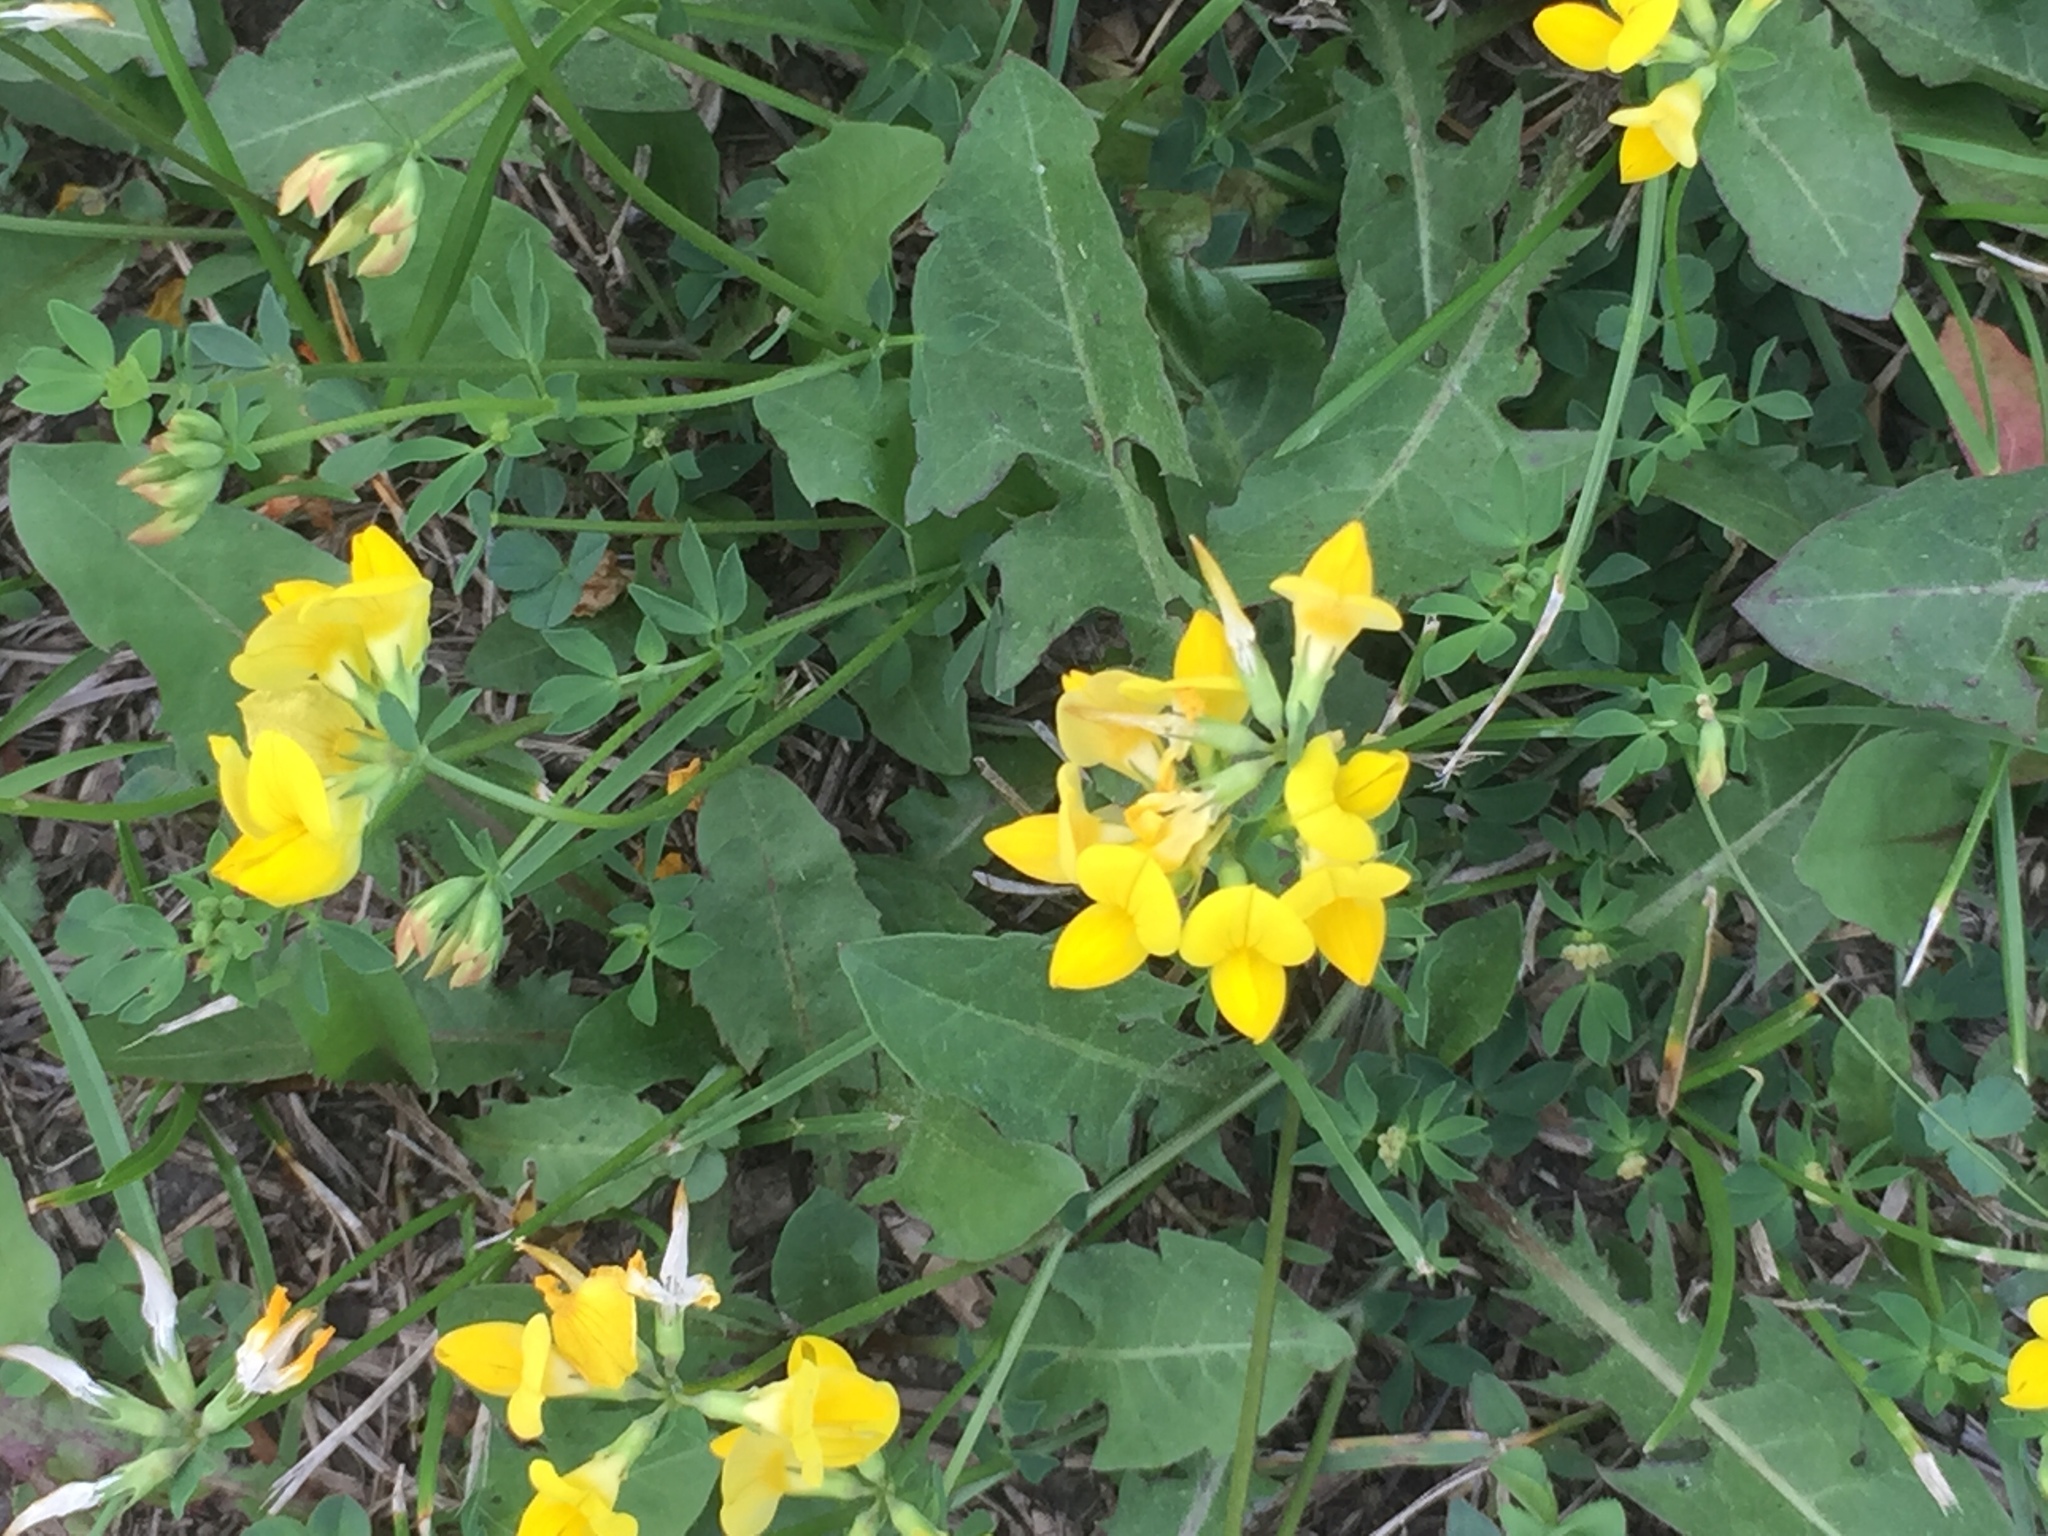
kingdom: Plantae
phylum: Tracheophyta
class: Magnoliopsida
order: Fabales
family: Fabaceae
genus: Lotus
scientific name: Lotus corniculatus
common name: Common bird's-foot-trefoil
